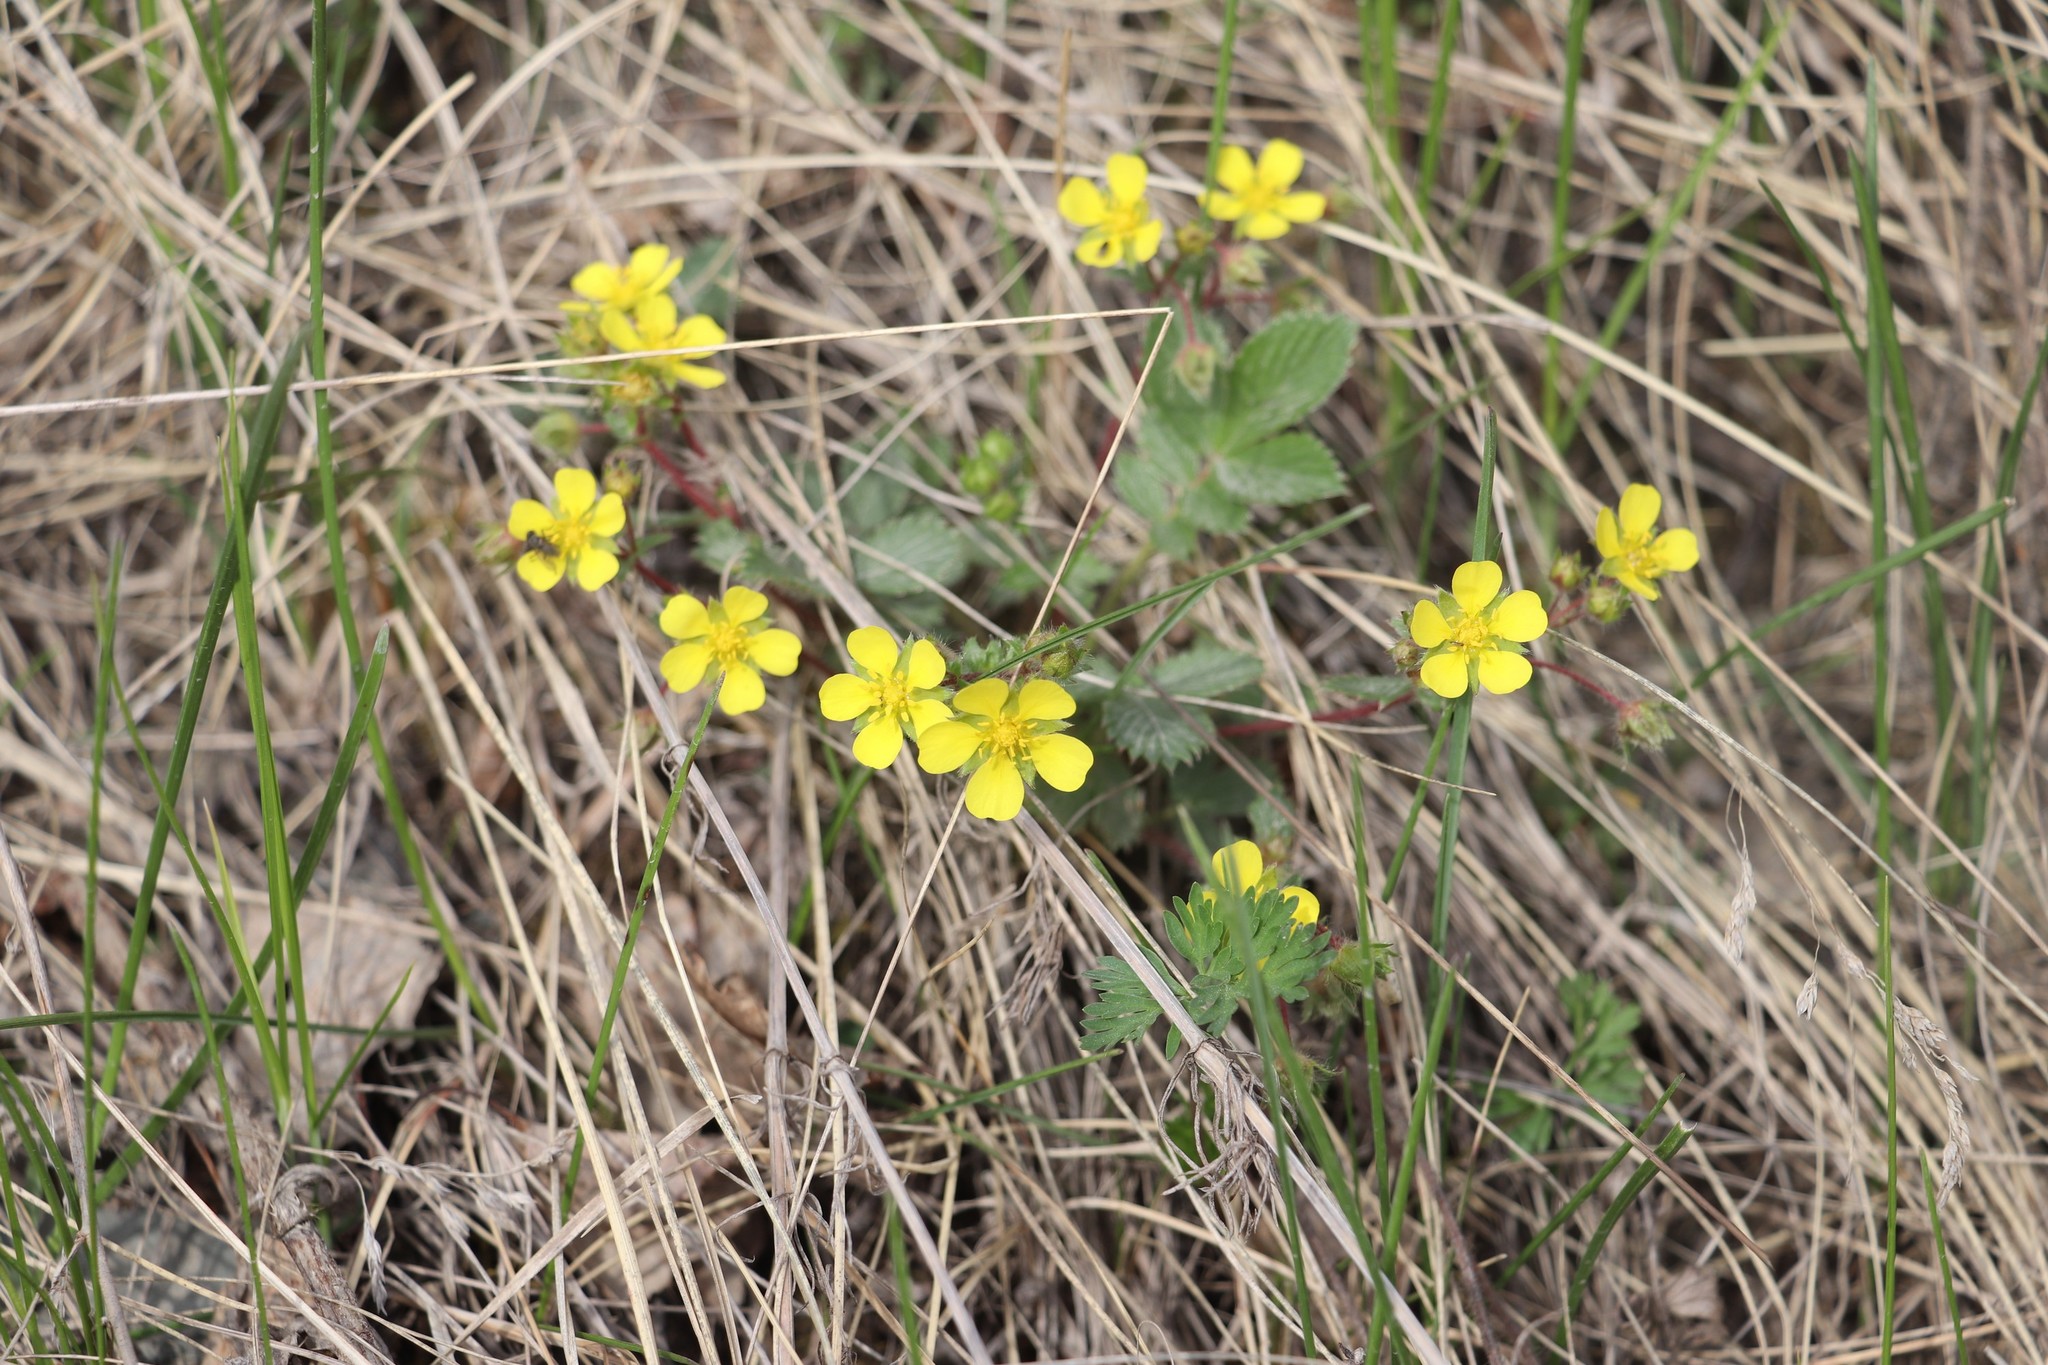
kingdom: Plantae
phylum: Tracheophyta
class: Magnoliopsida
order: Rosales
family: Rosaceae
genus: Potentilla
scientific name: Potentilla fragarioides
